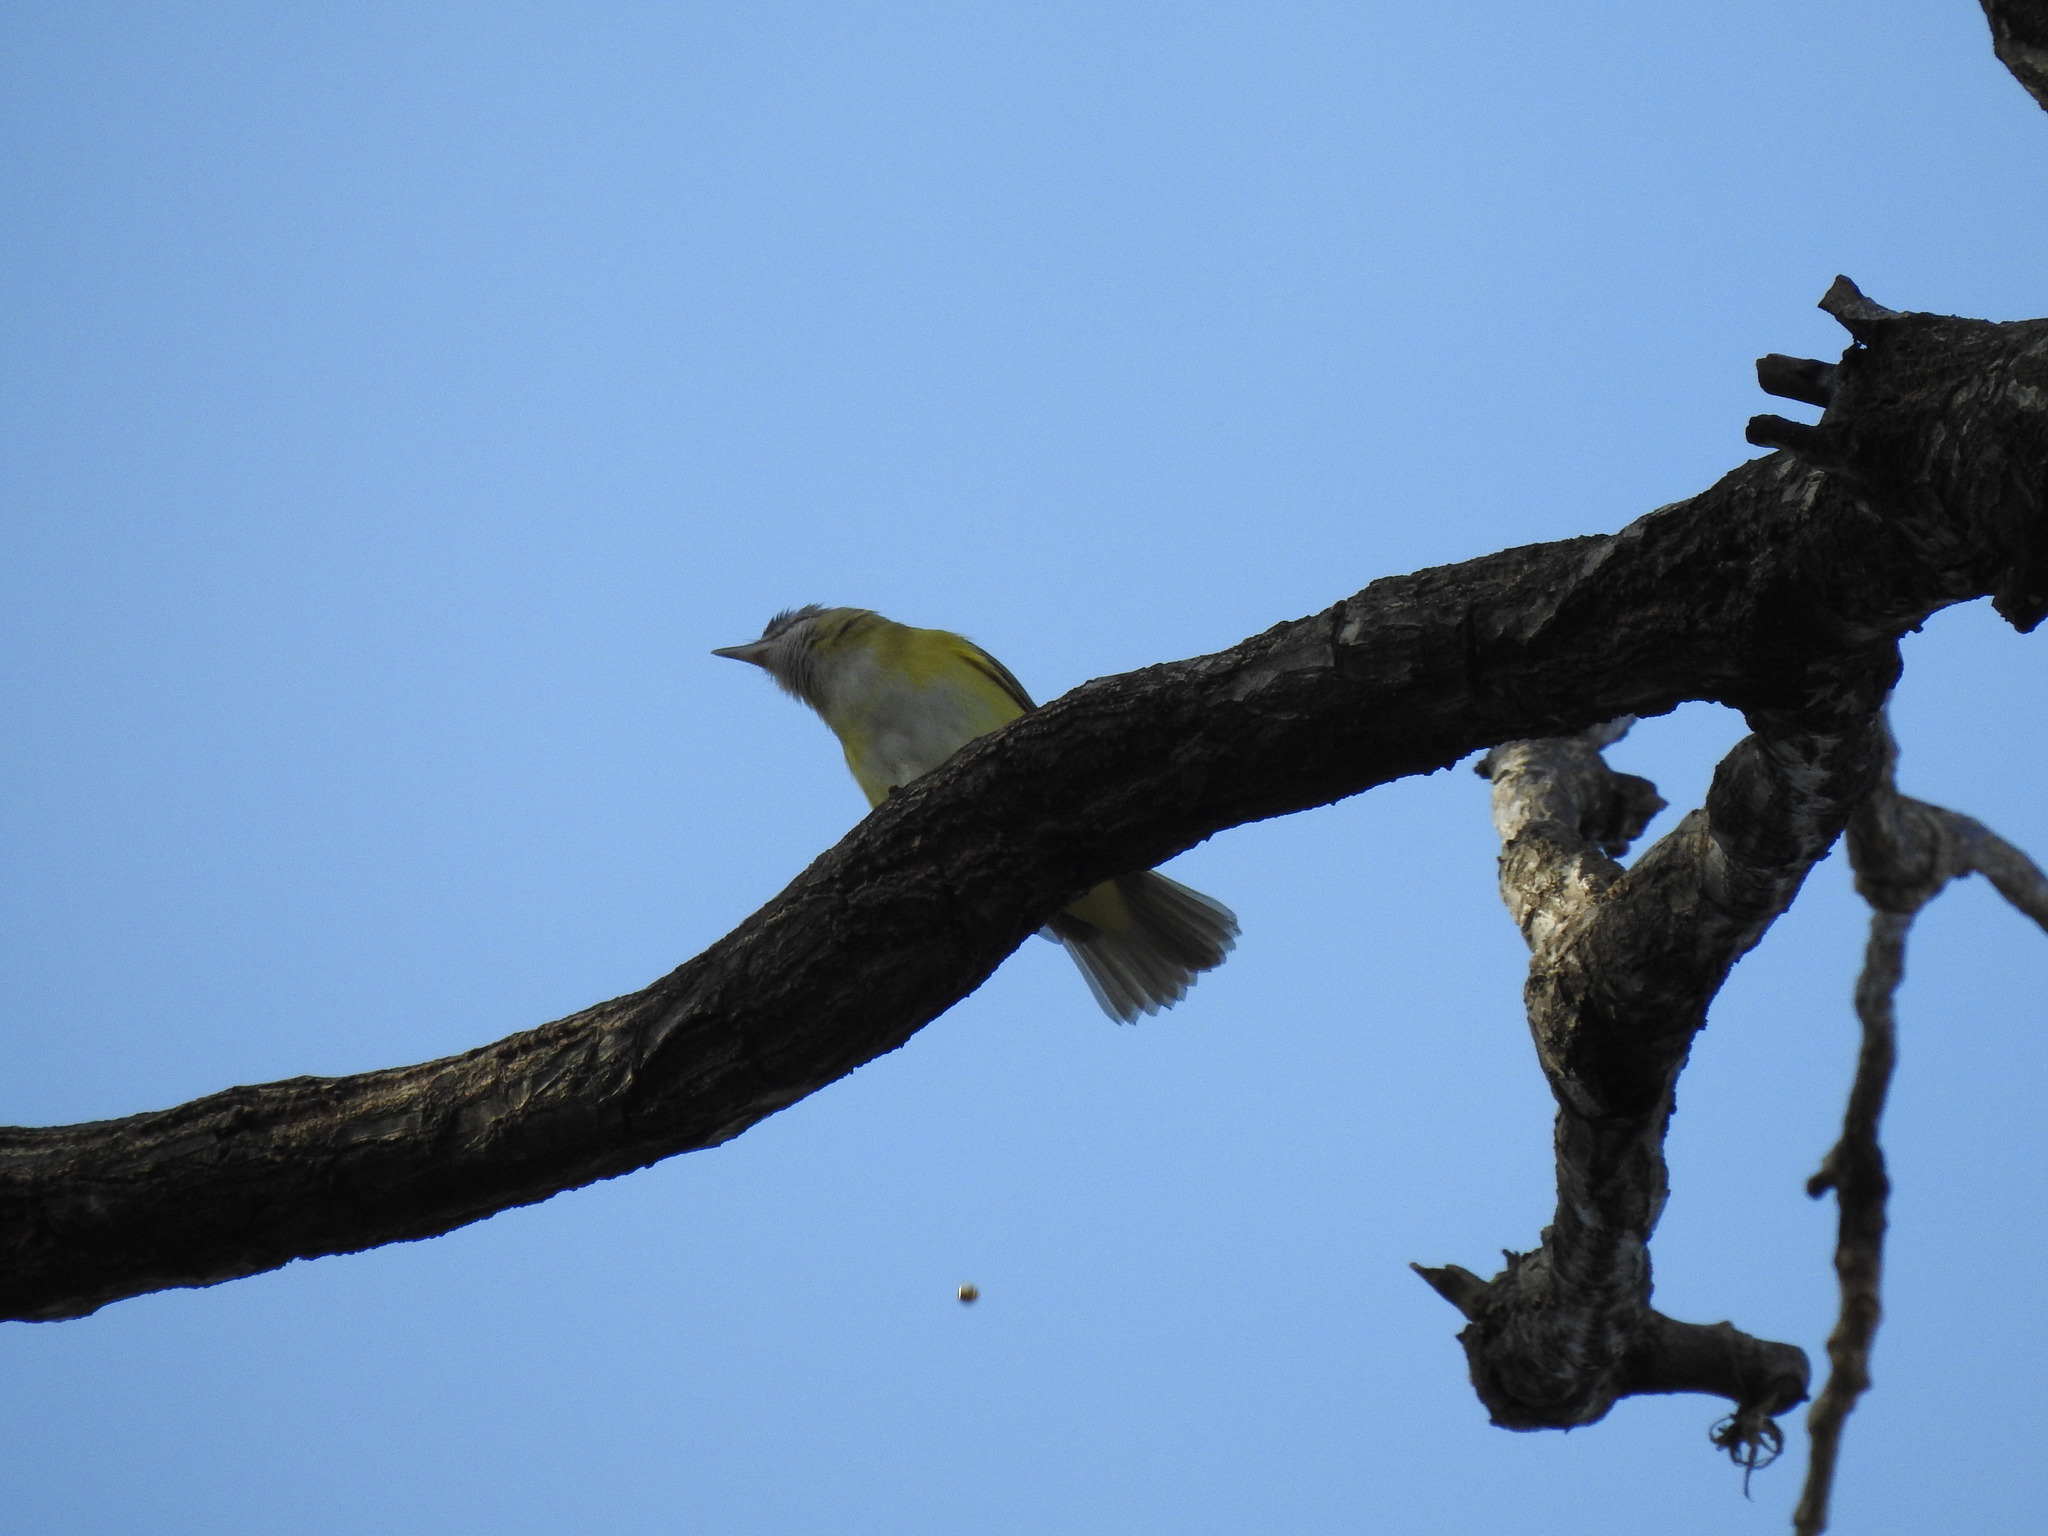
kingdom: Animalia
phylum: Chordata
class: Aves
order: Passeriformes
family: Vireonidae
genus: Vireo
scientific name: Vireo flavoviridis
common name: Yellow-green vireo
